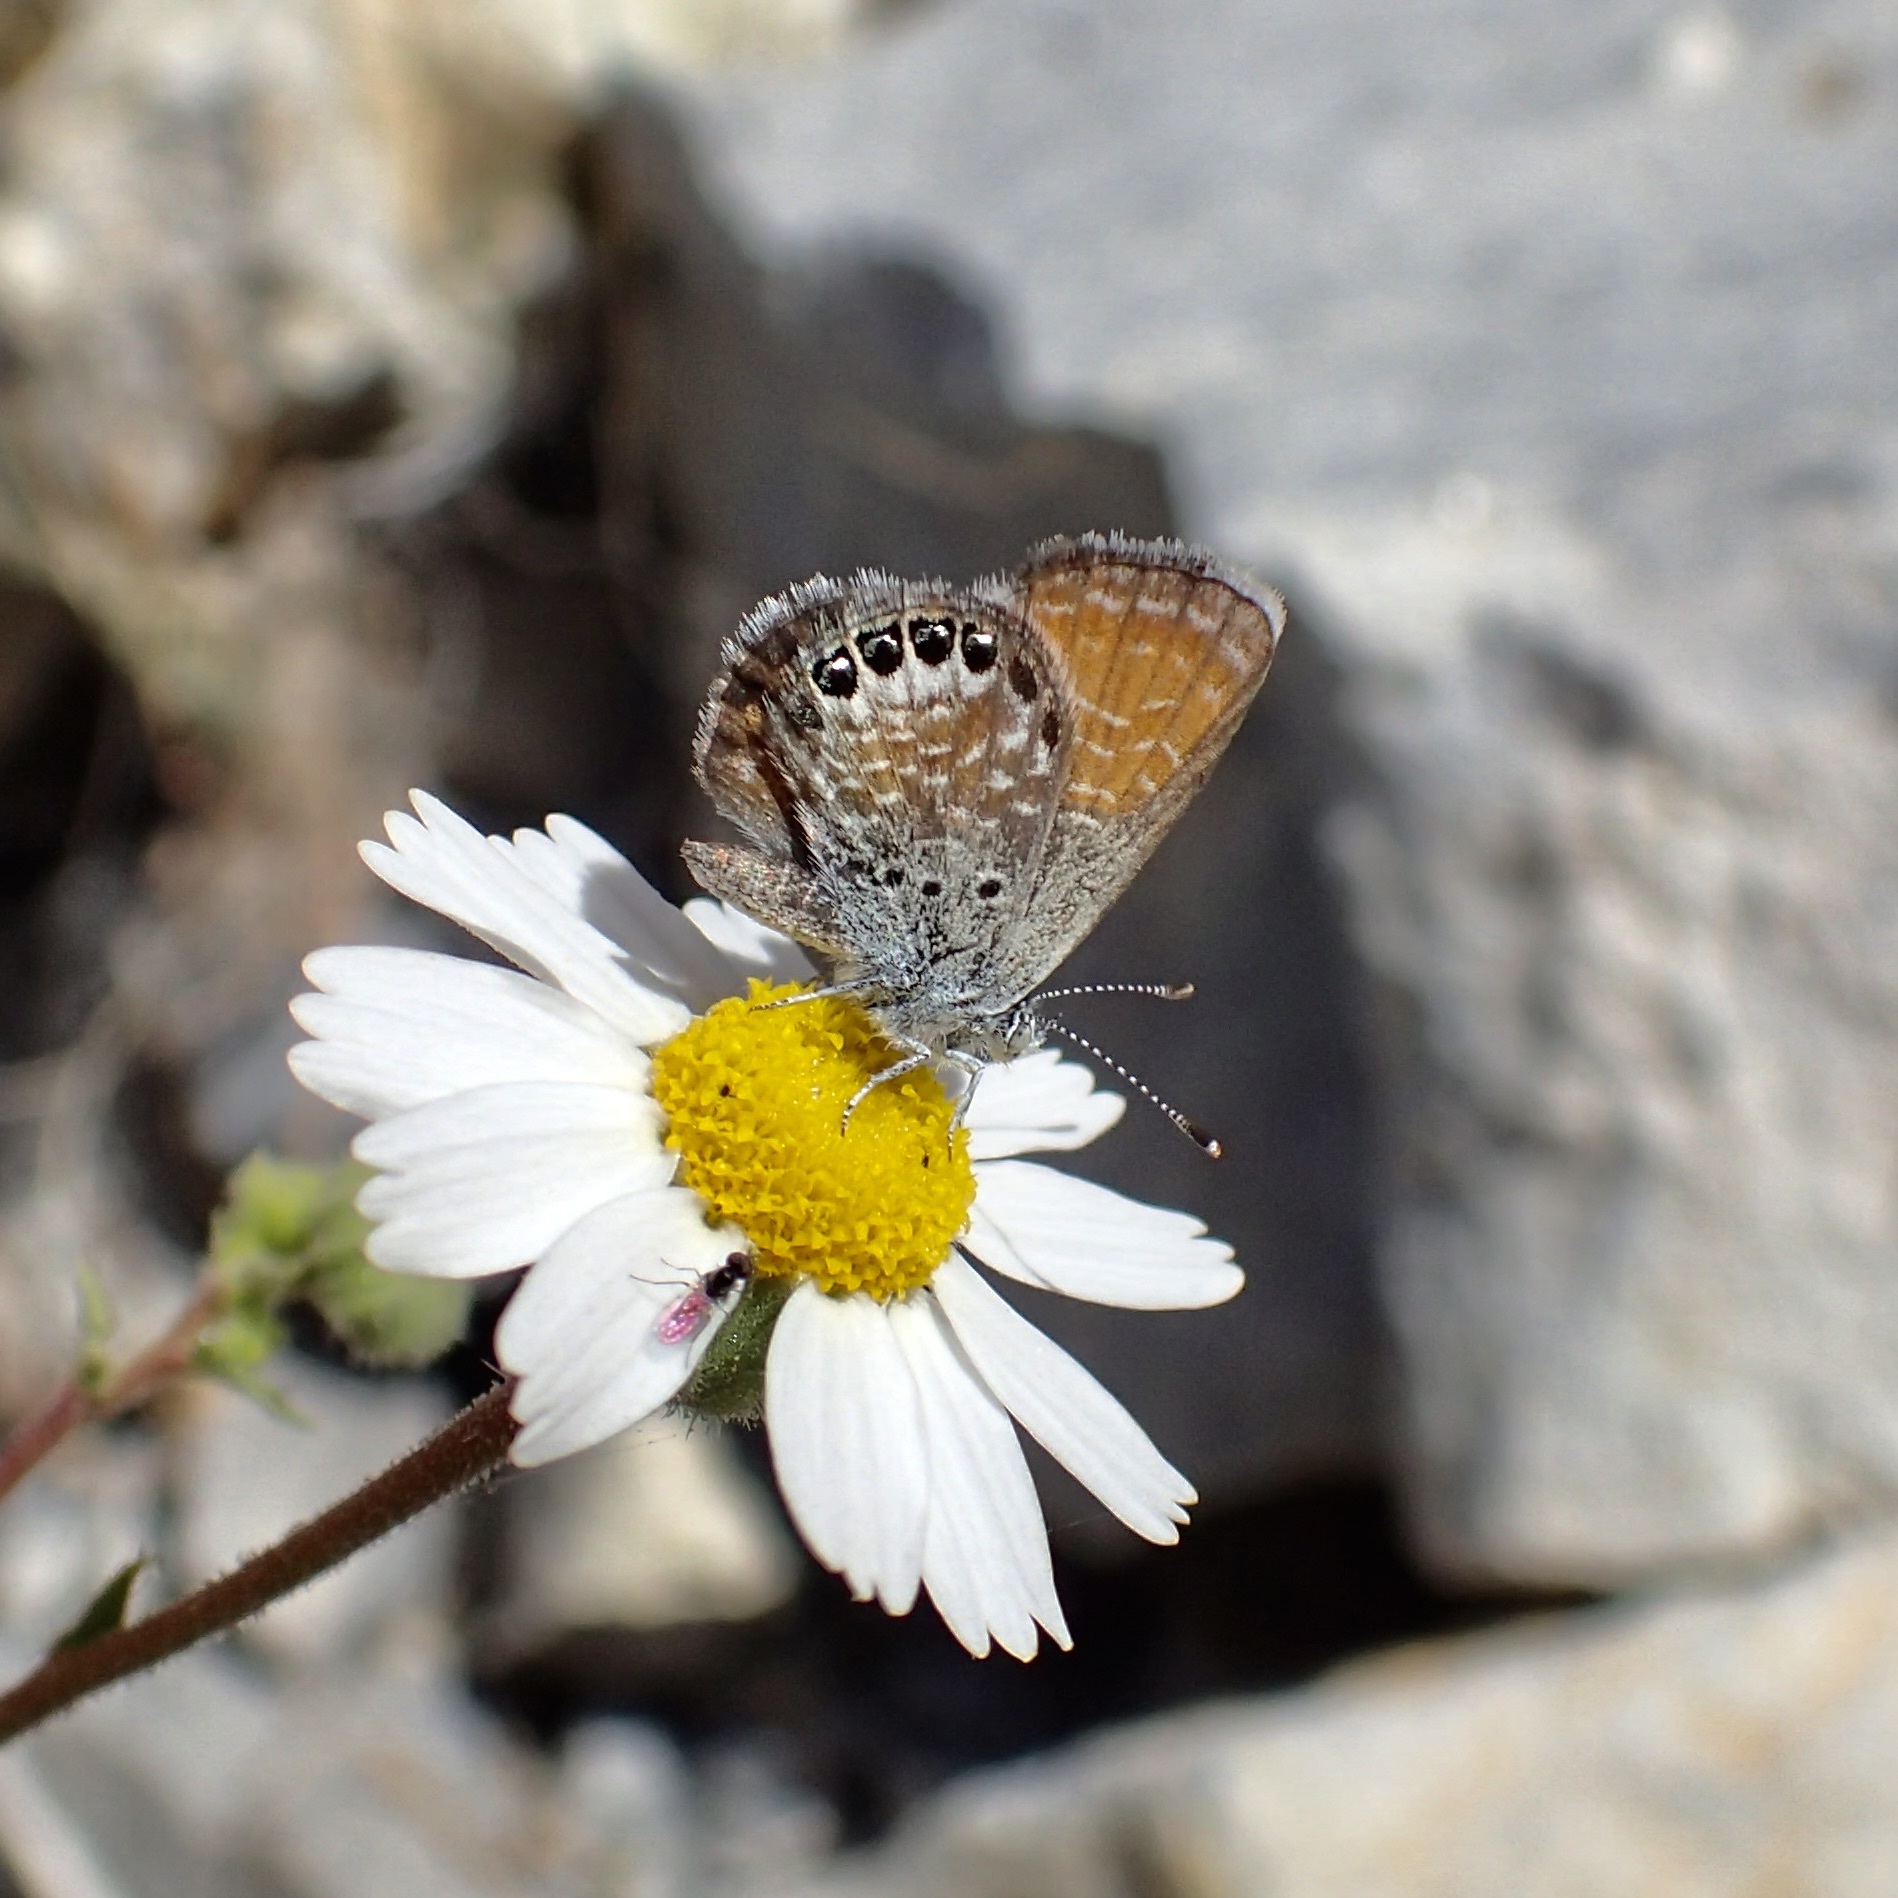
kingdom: Animalia
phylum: Arthropoda
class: Insecta
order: Lepidoptera
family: Lycaenidae
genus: Brephidium
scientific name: Brephidium exilis
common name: Pygmy blue
